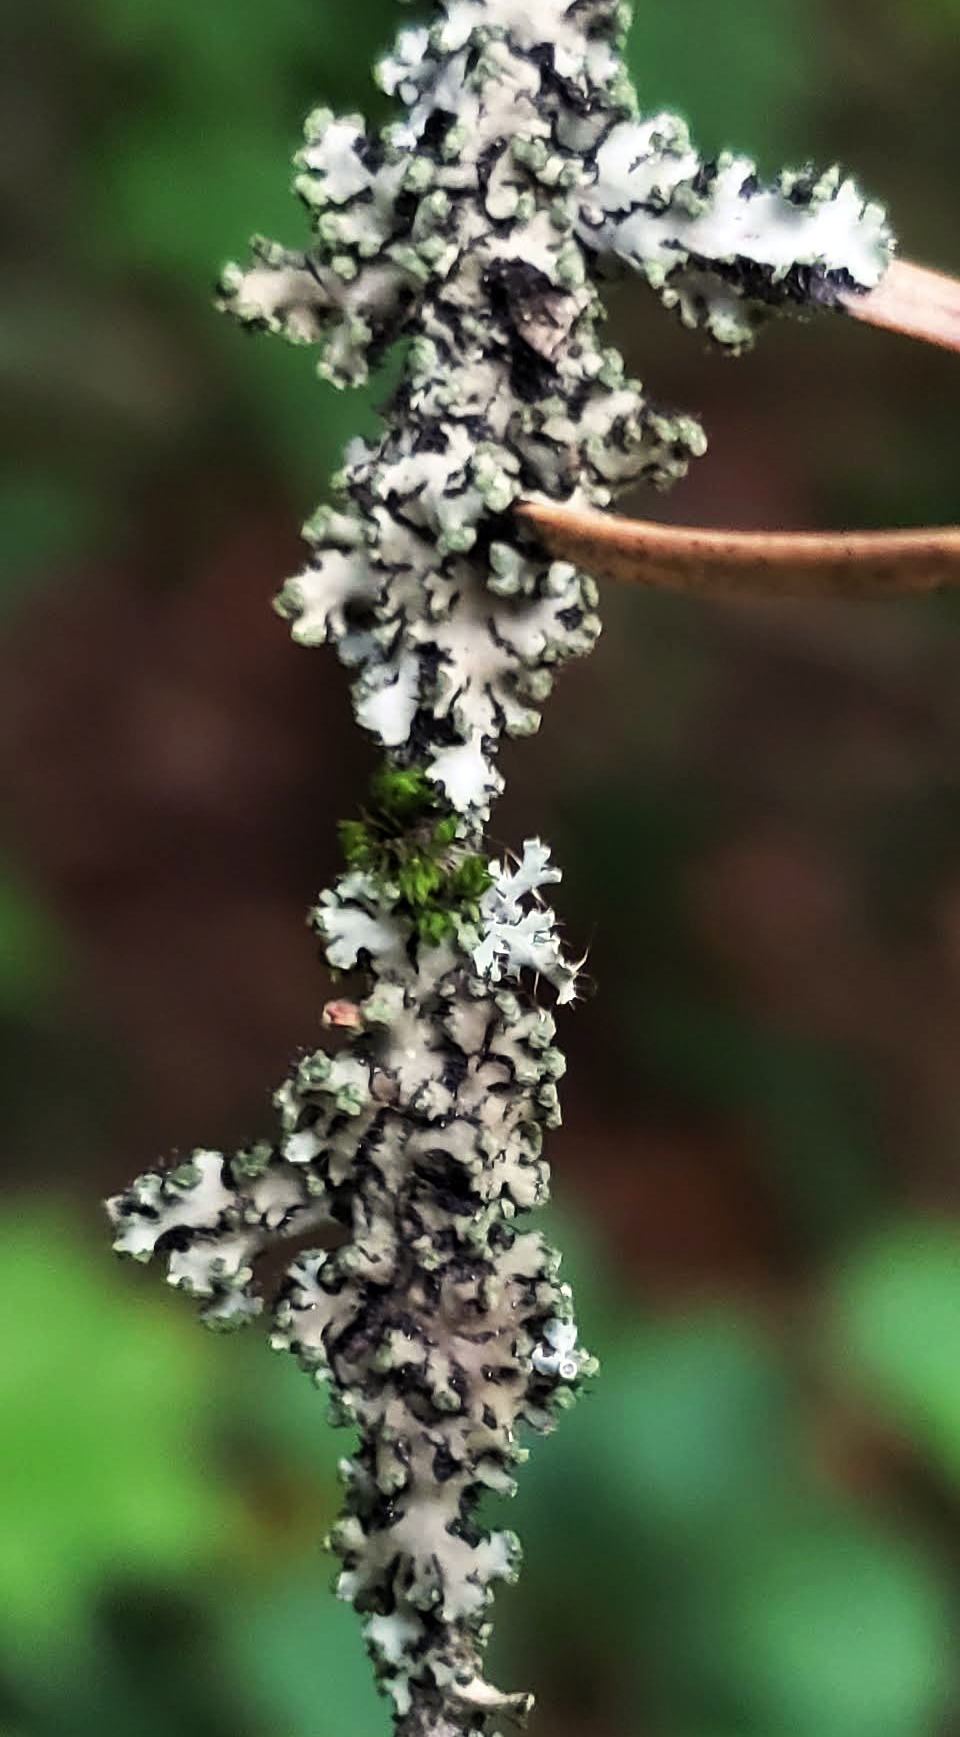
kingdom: Fungi
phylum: Ascomycota
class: Lecanoromycetes
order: Lecanorales
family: Parmeliaceae
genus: Hypogymnia
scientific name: Hypogymnia physodes
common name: Dark crottle
